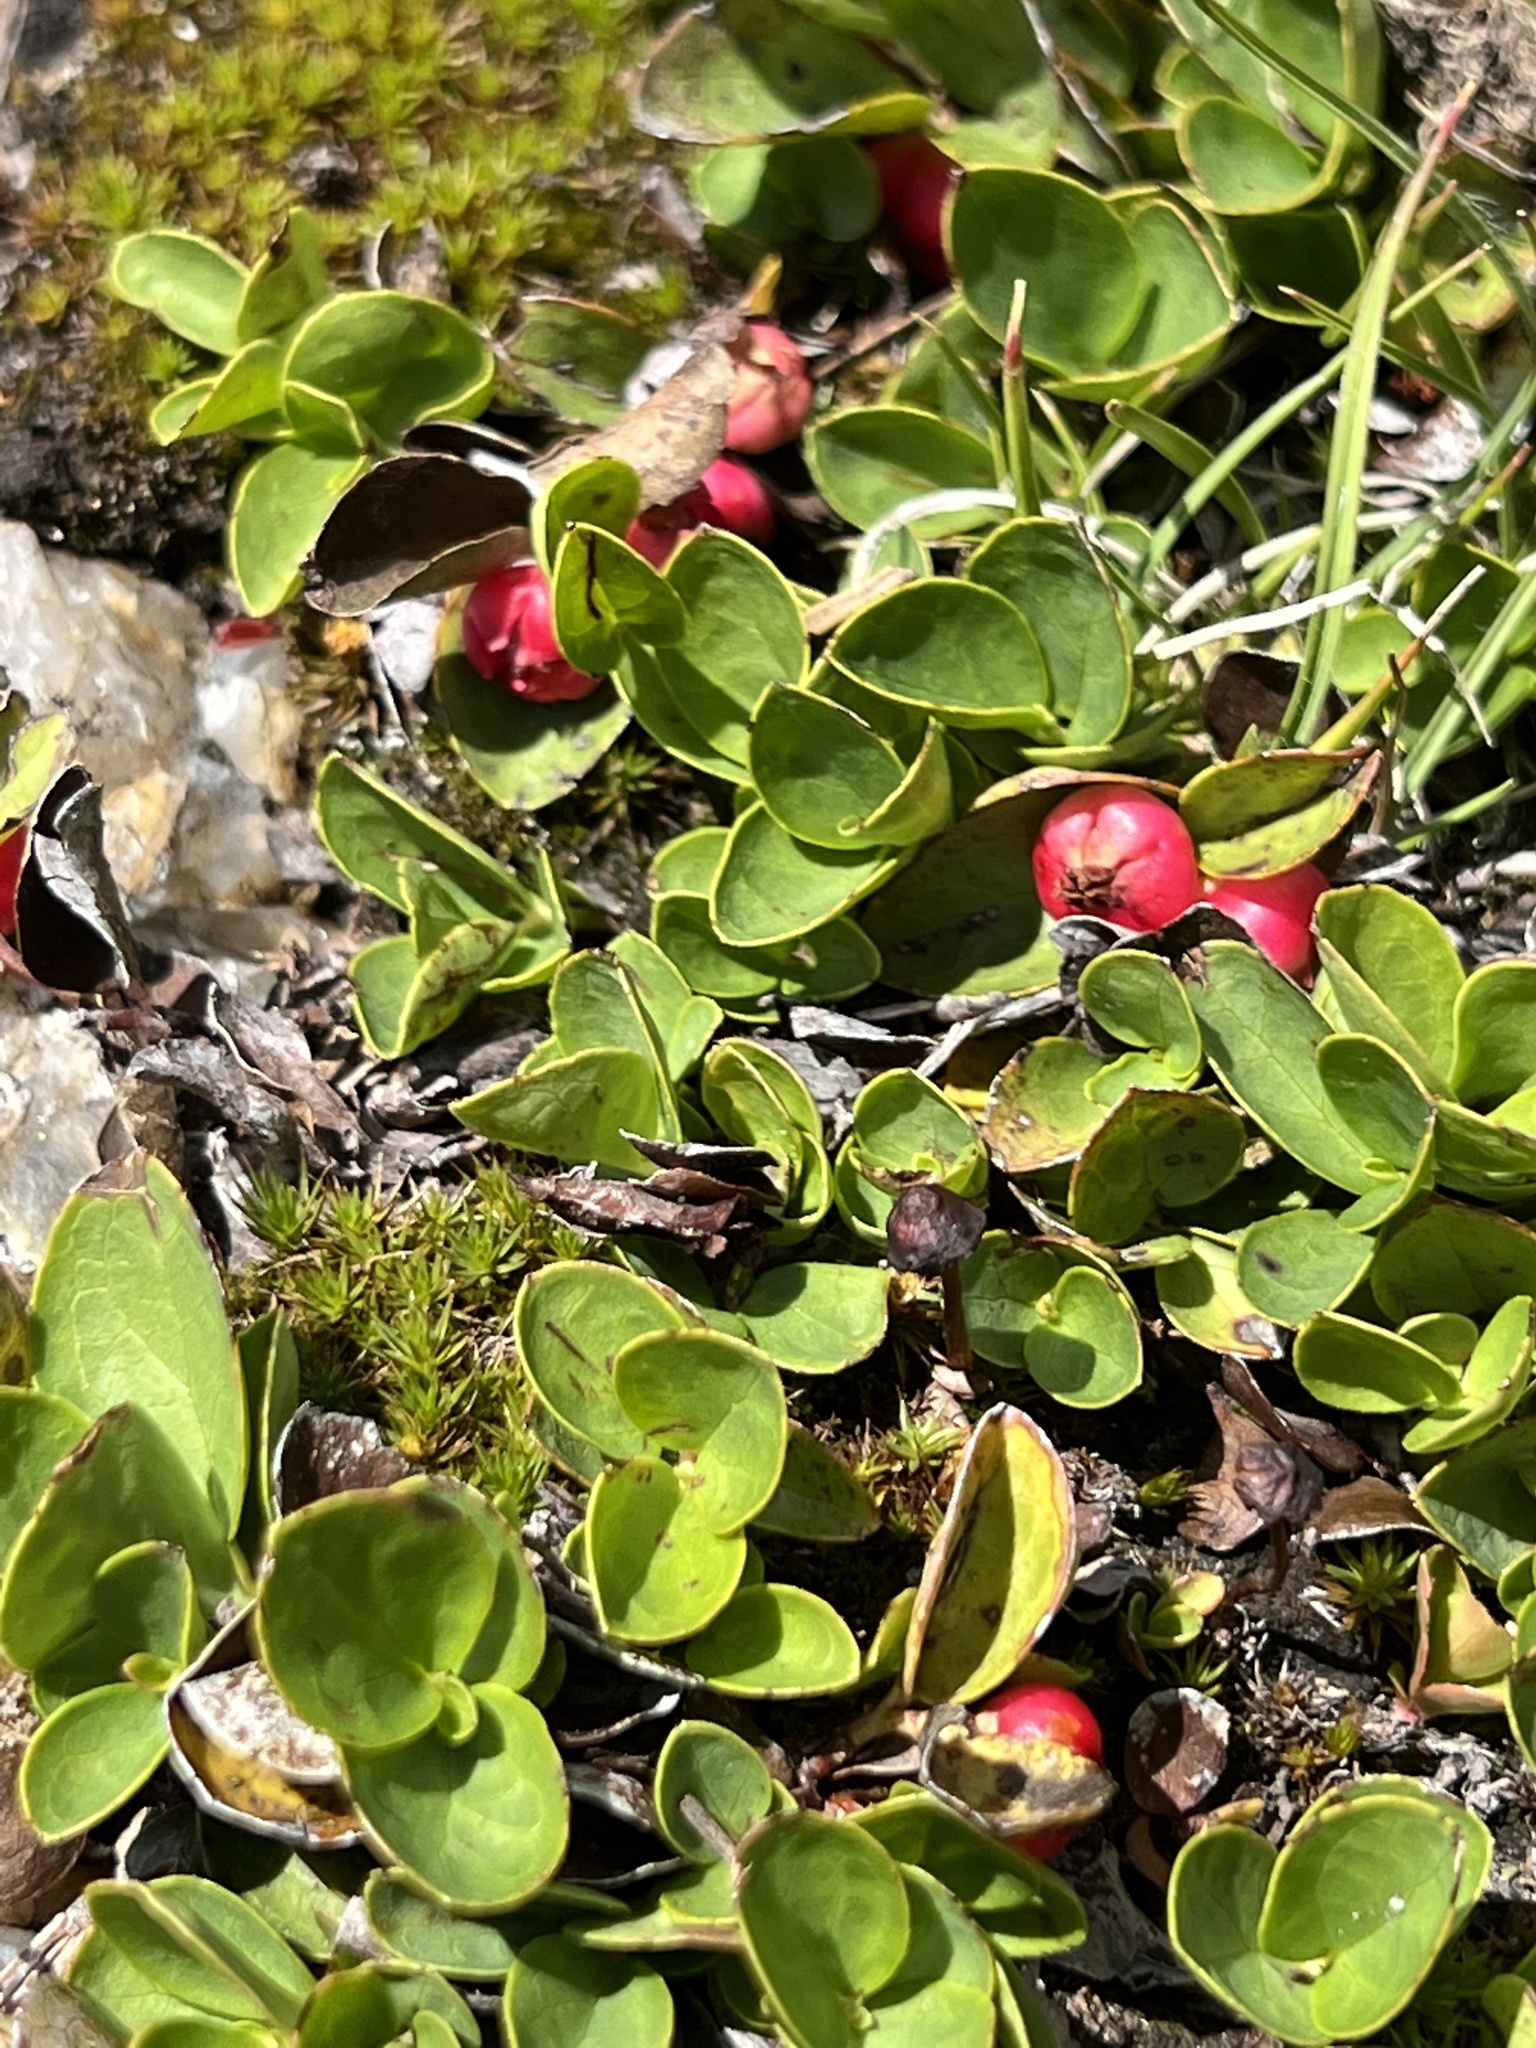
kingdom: Plantae
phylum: Tracheophyta
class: Magnoliopsida
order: Ericales
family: Ericaceae
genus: Gaultheria
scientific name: Gaultheria humifusa
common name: Alpine wintergreen
